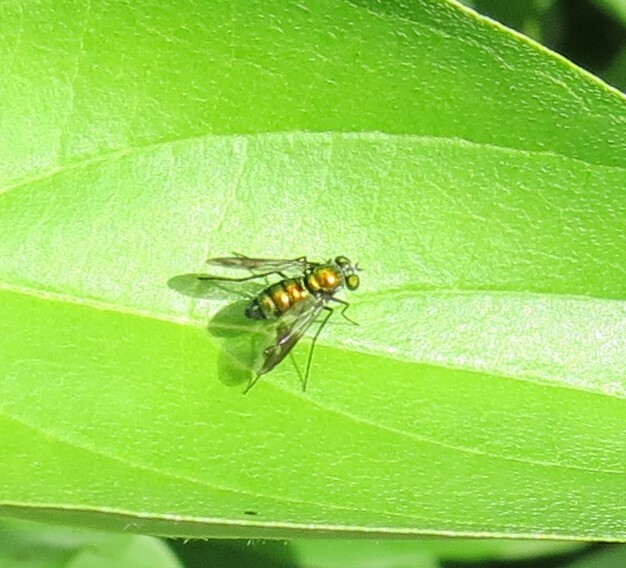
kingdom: Animalia
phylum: Arthropoda
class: Insecta
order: Diptera
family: Dolichopodidae
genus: Condylostylus
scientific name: Condylostylus patibulatus
